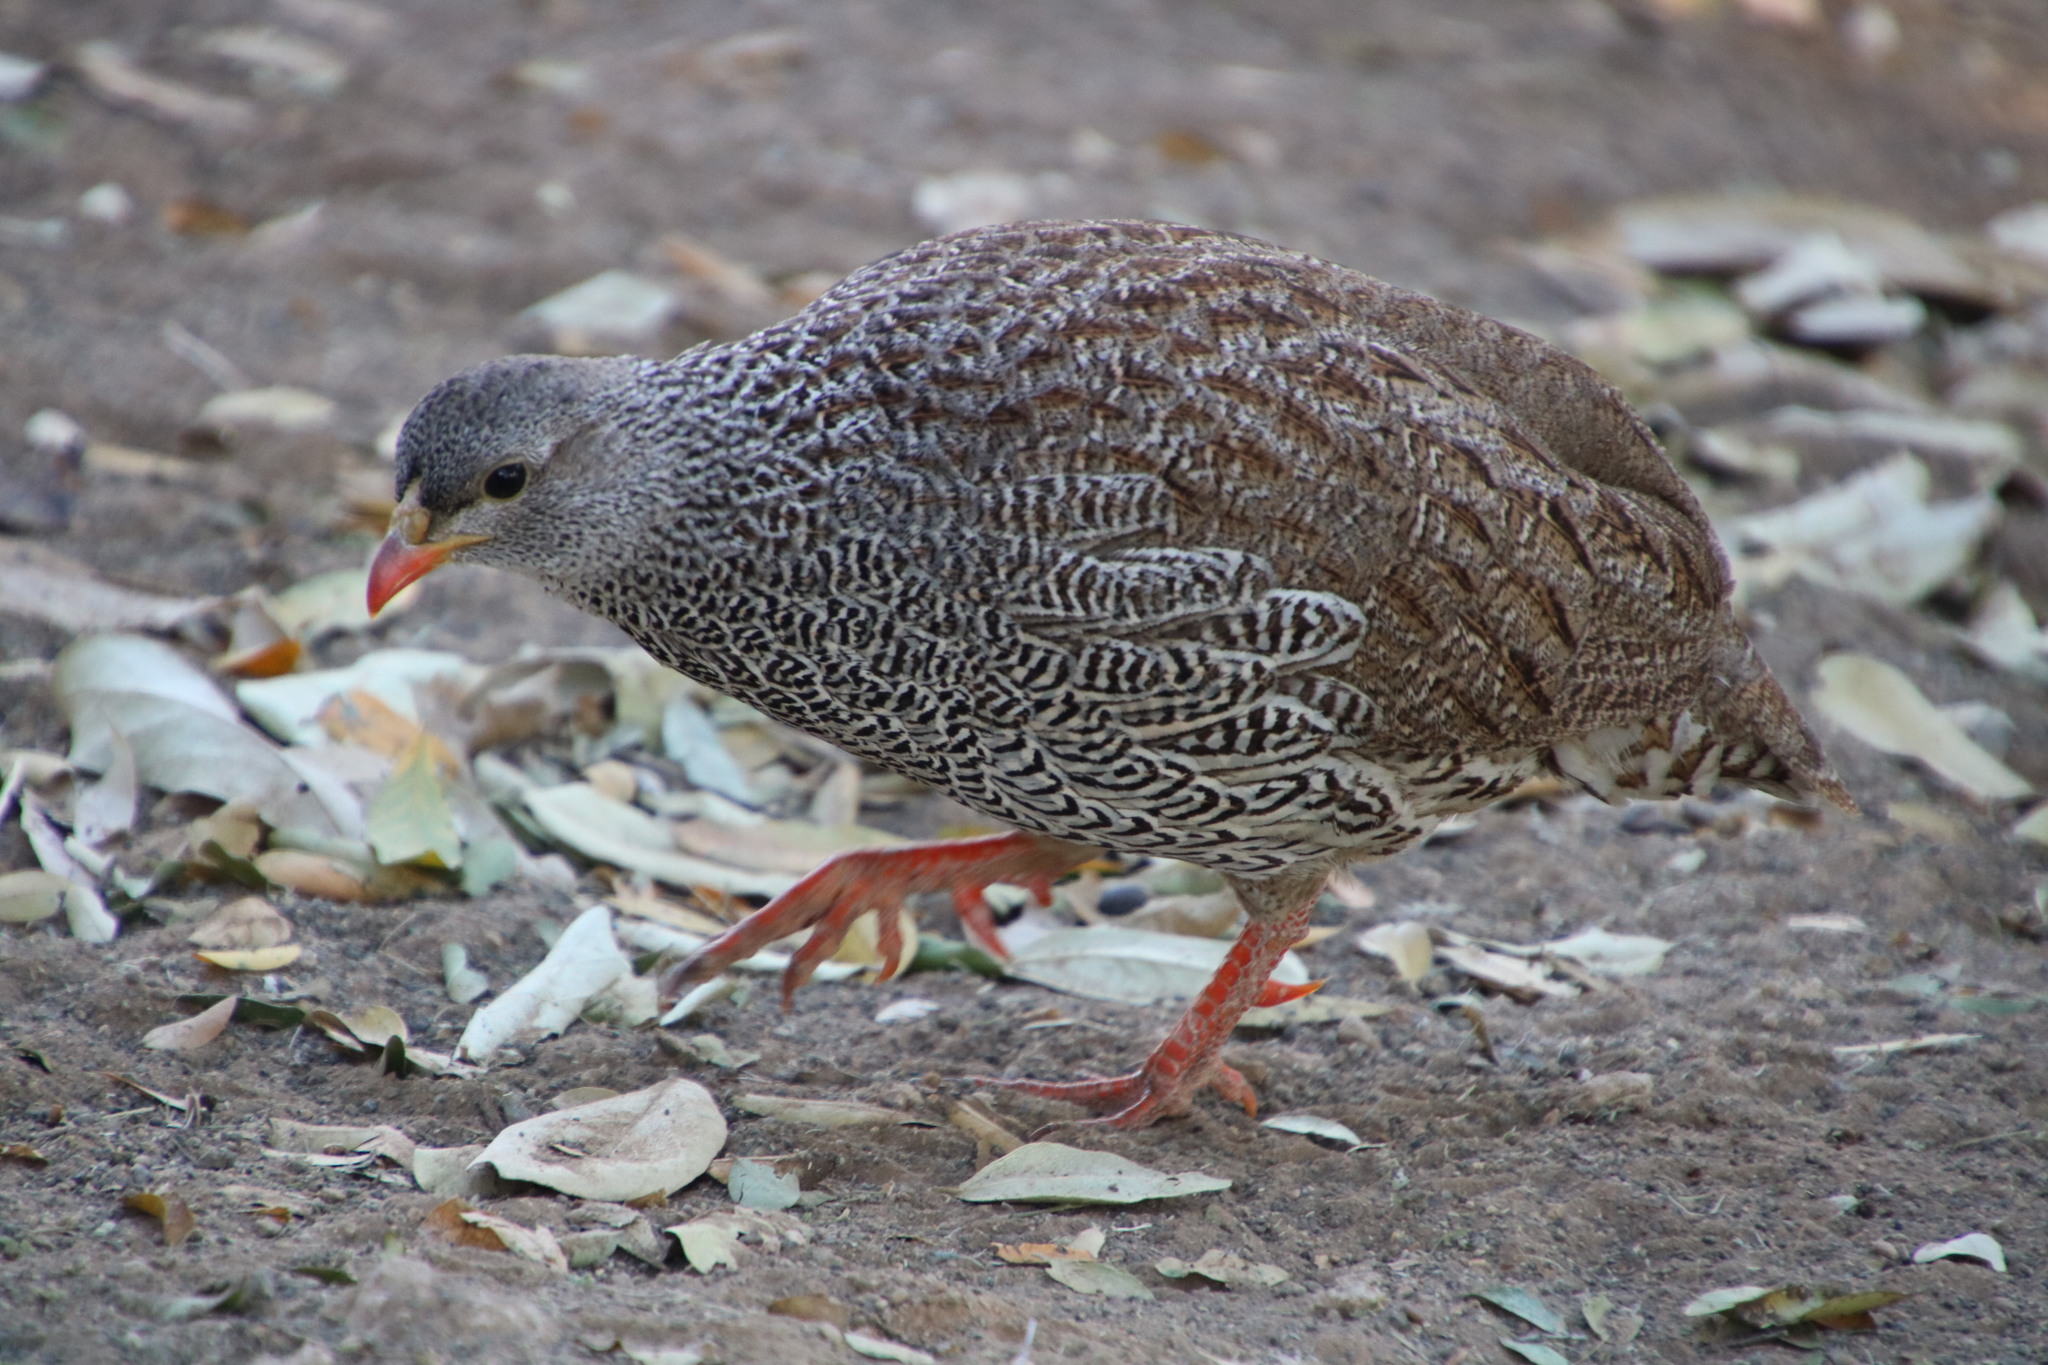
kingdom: Animalia
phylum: Chordata
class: Aves
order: Galliformes
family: Phasianidae
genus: Pternistis
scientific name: Pternistis natalensis
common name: Natal spurfowl
